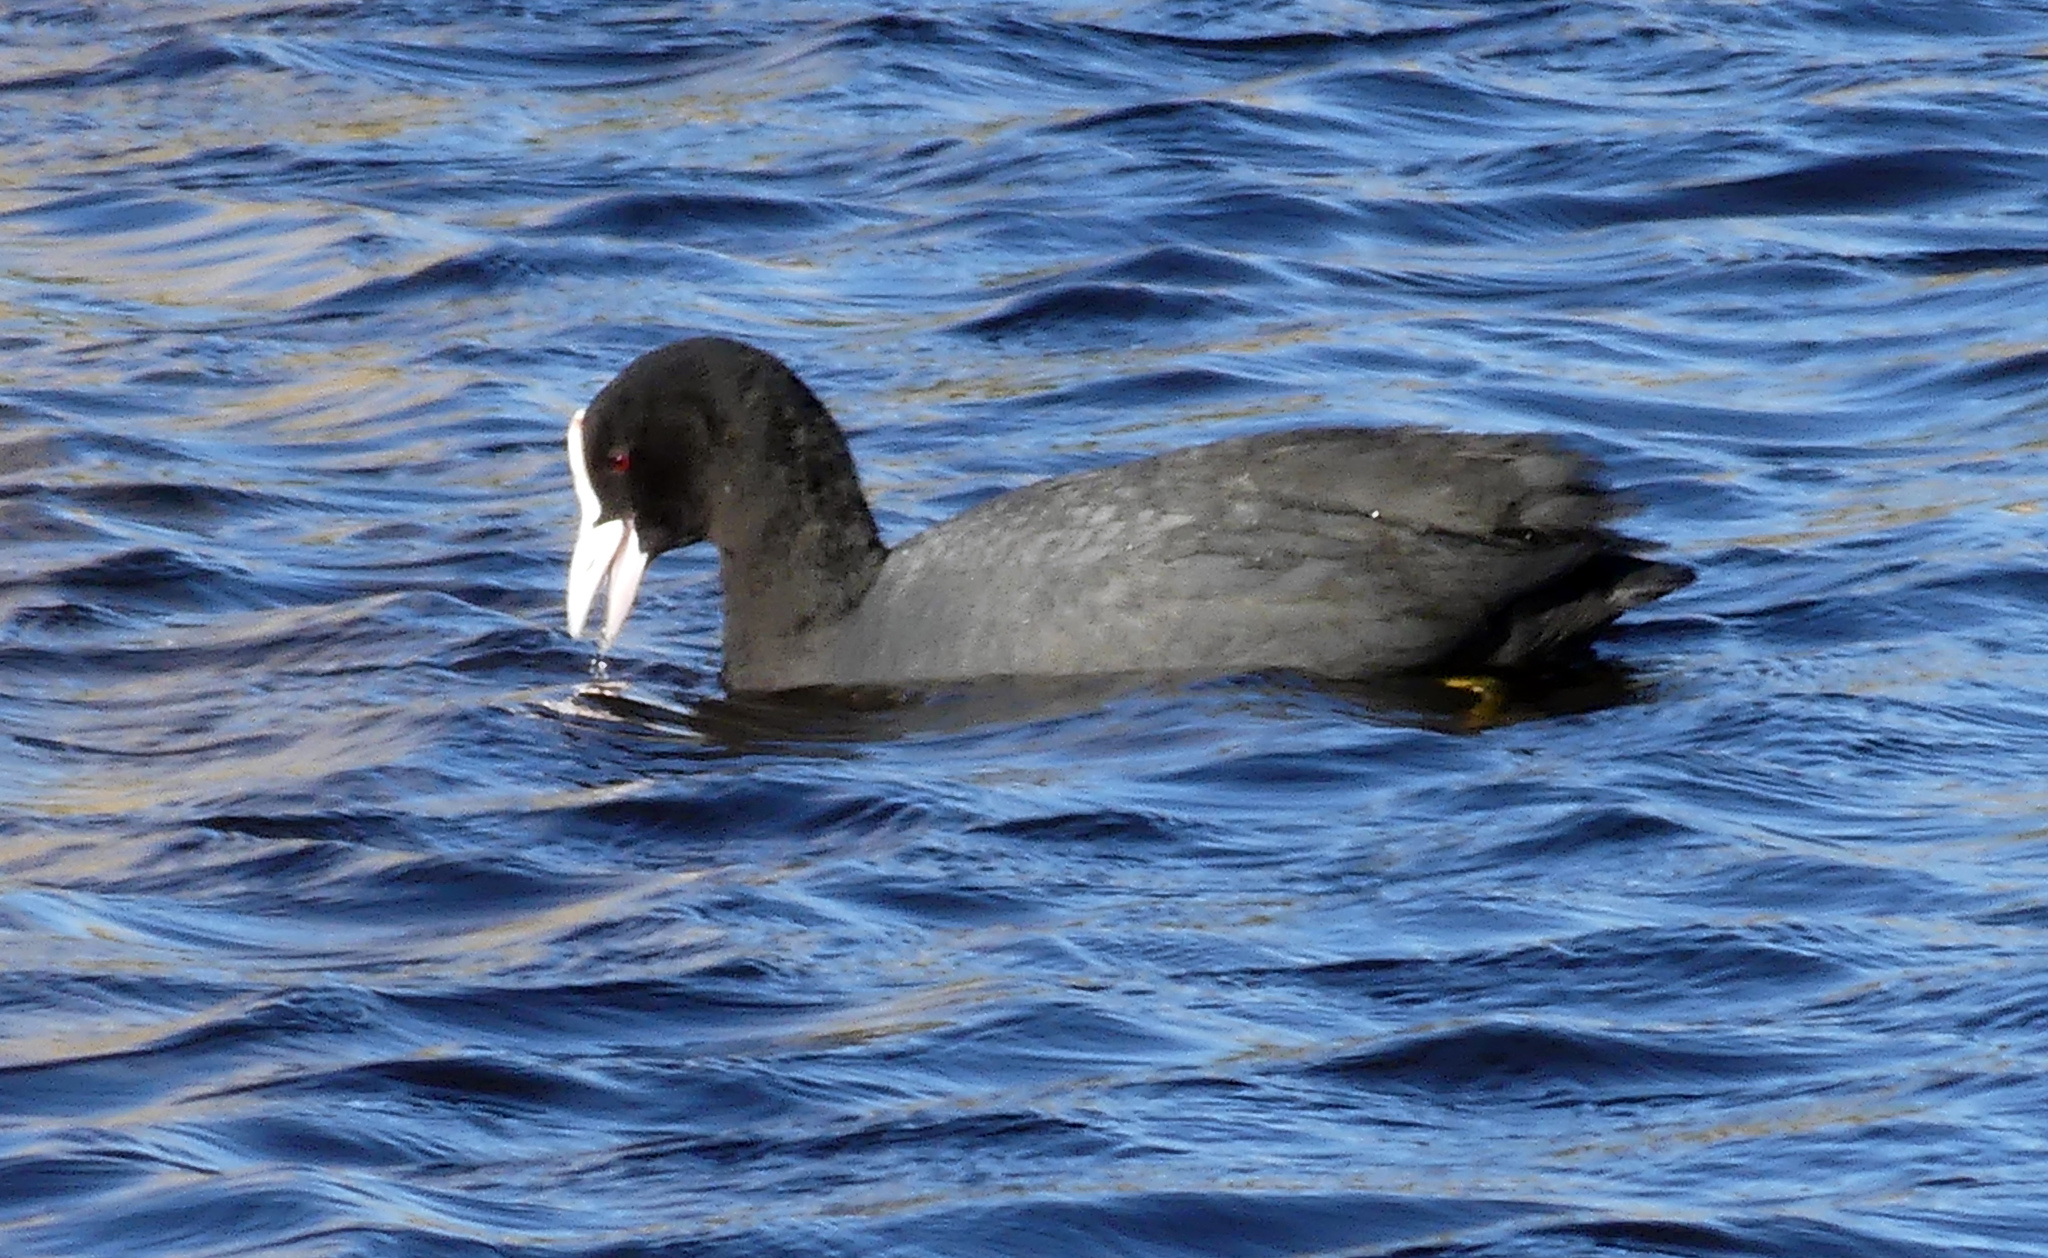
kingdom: Animalia
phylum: Chordata
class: Aves
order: Gruiformes
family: Rallidae
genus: Fulica
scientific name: Fulica atra
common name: Eurasian coot
